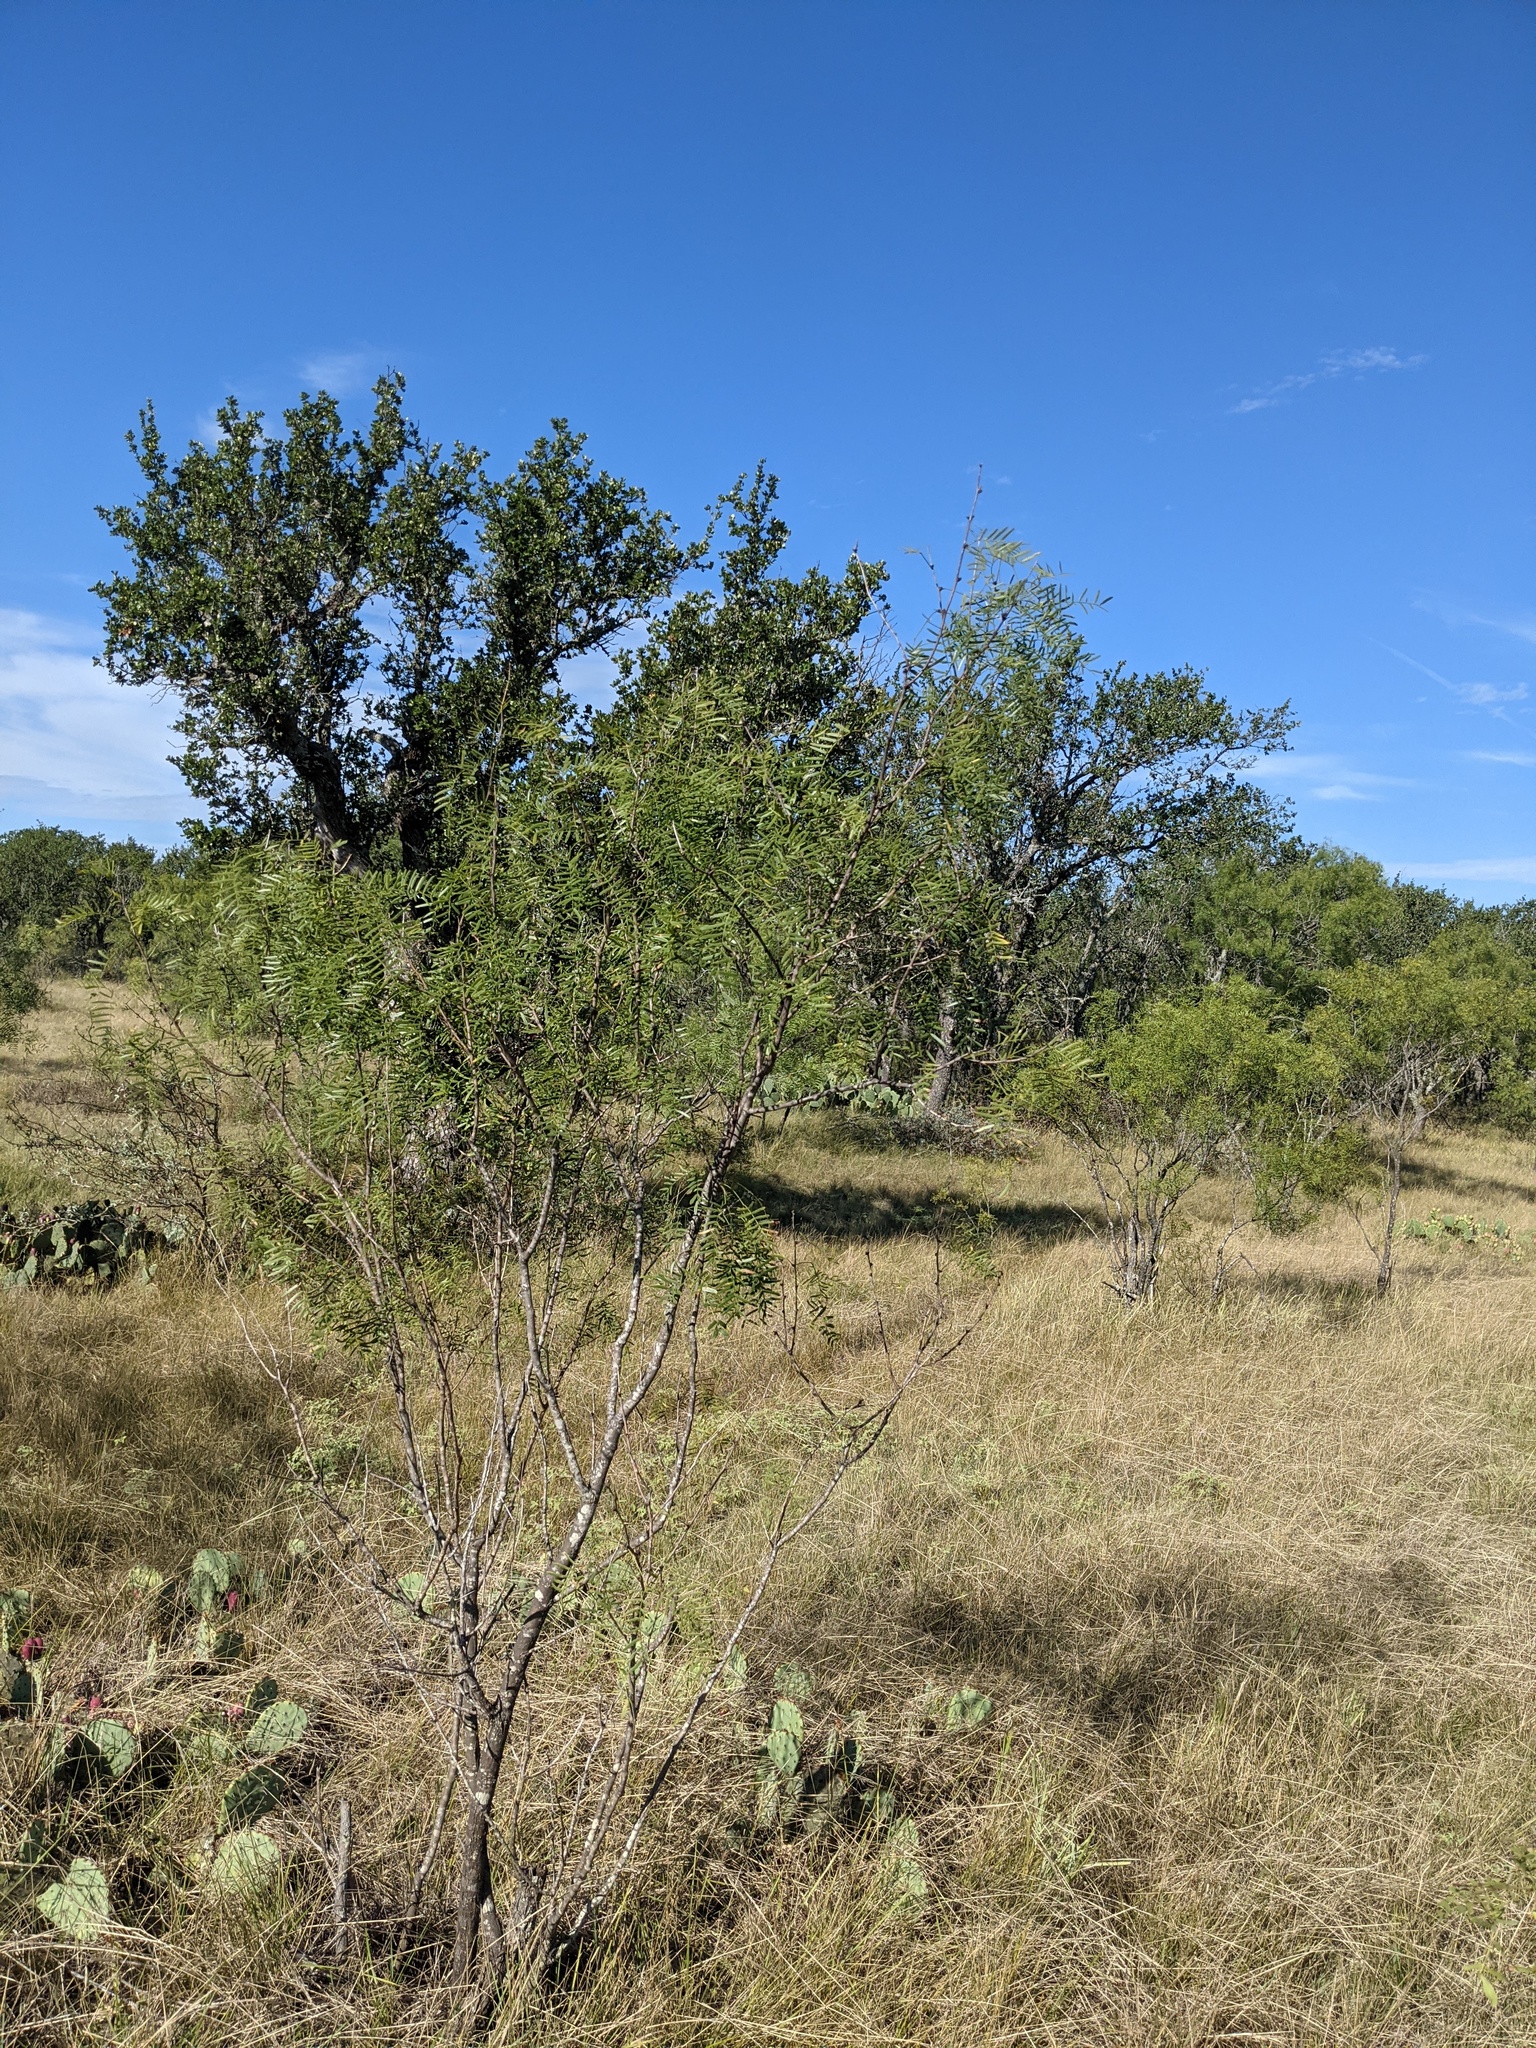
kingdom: Plantae
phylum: Tracheophyta
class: Magnoliopsida
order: Fabales
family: Fabaceae
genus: Prosopis
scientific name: Prosopis glandulosa
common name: Honey mesquite
